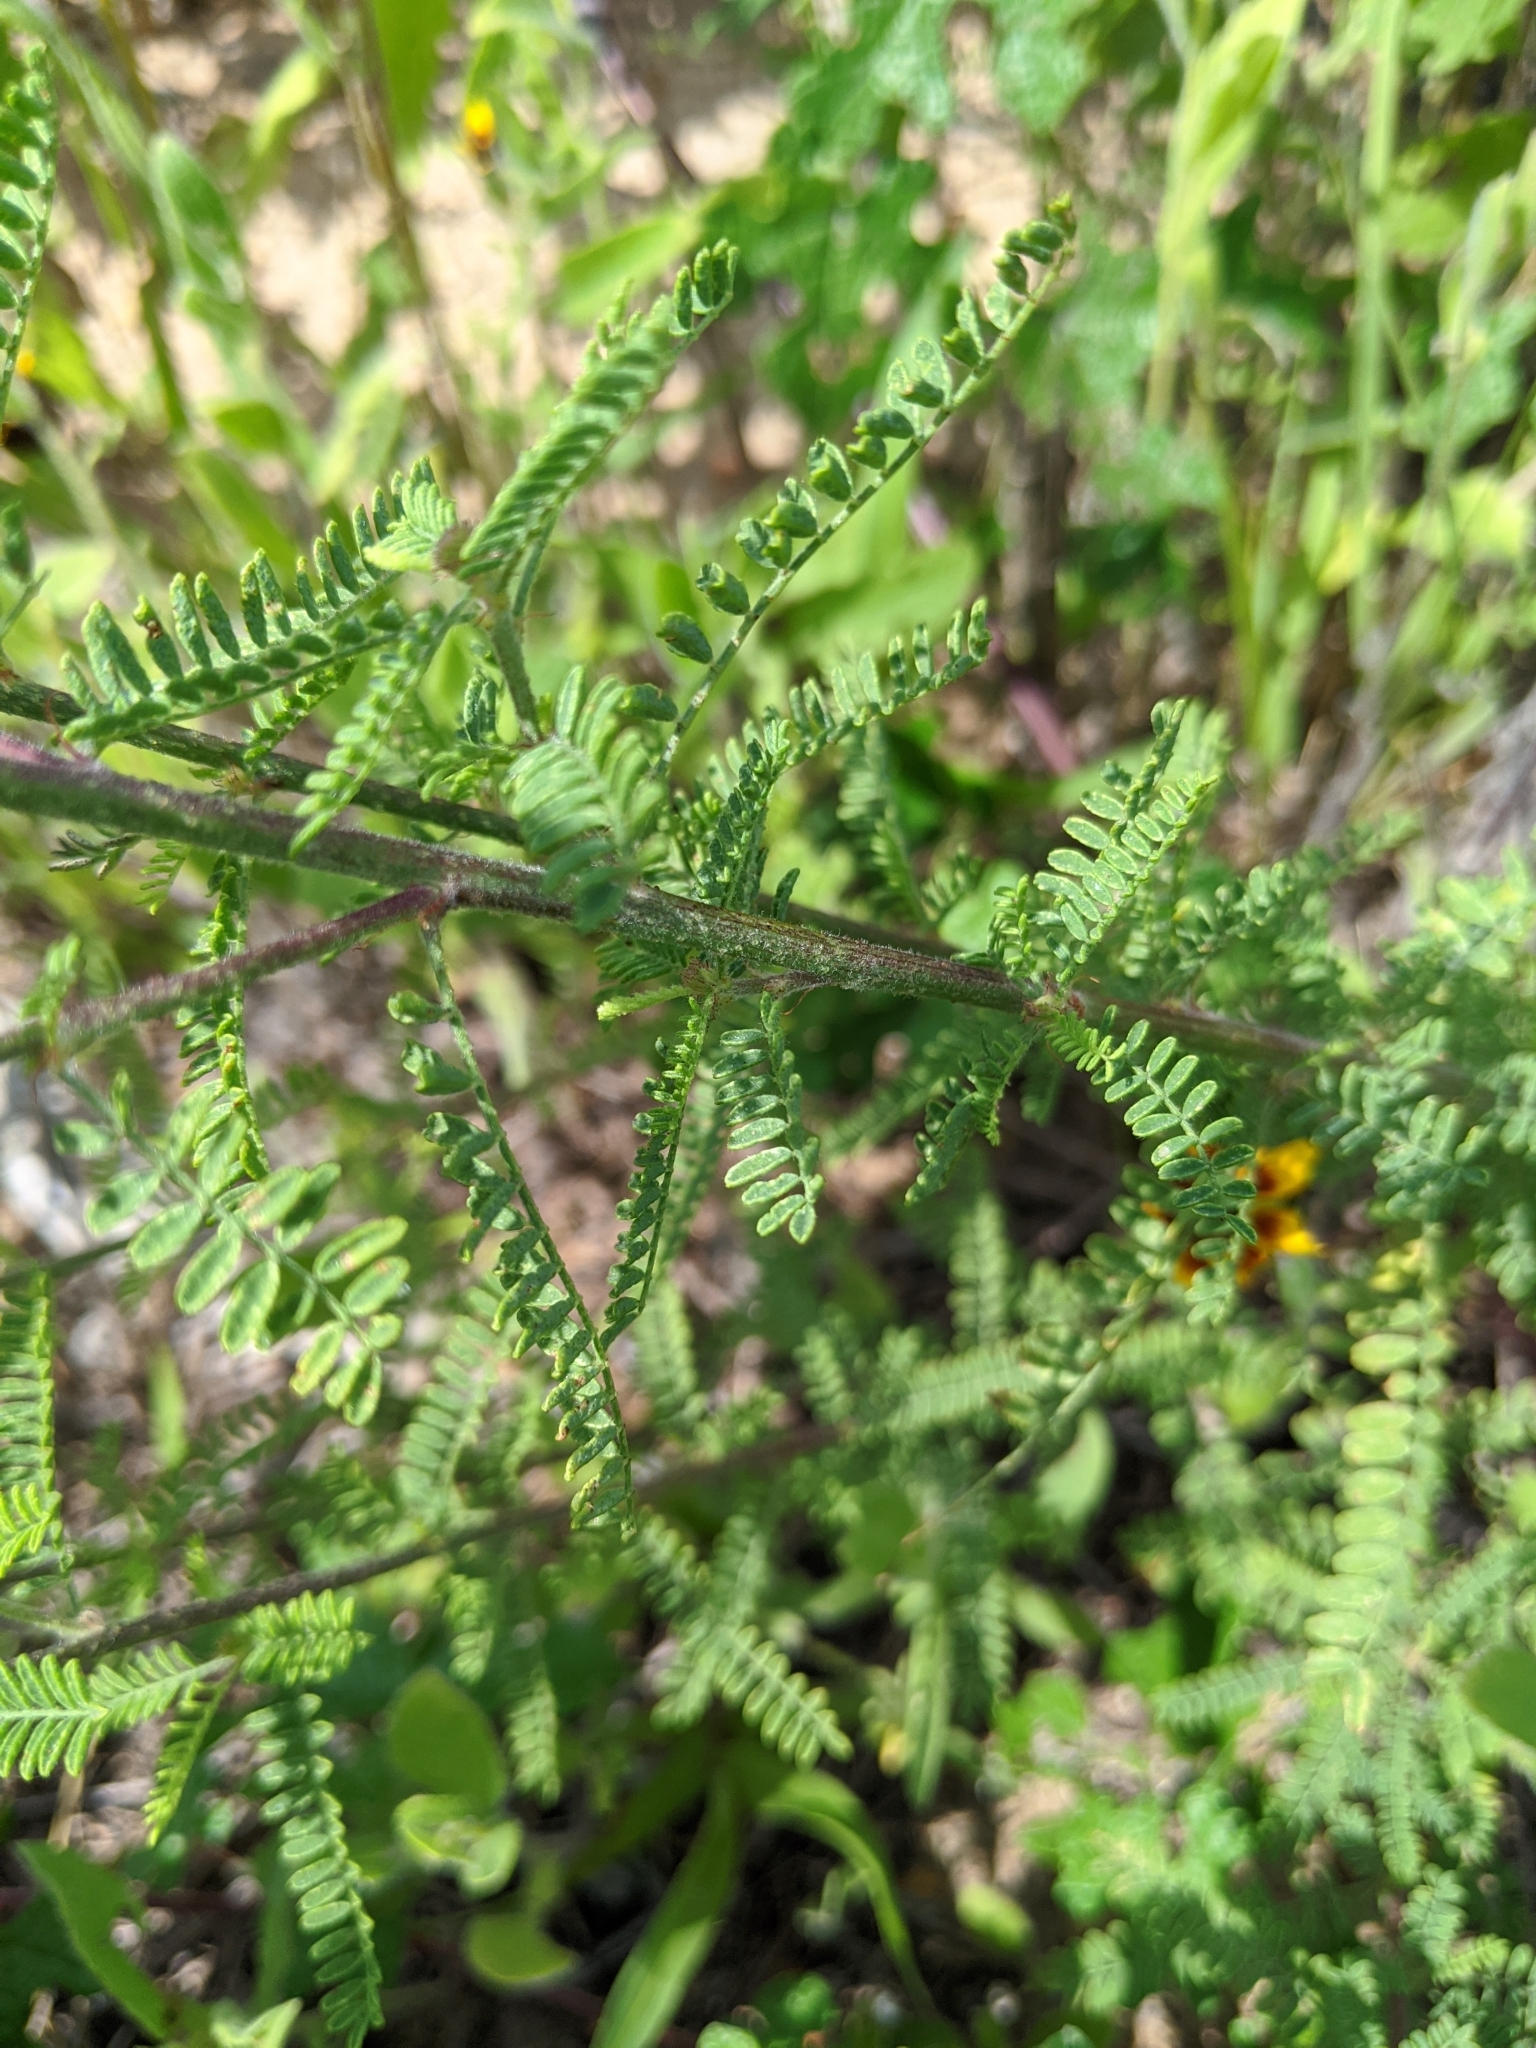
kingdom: Plantae
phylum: Tracheophyta
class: Magnoliopsida
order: Fabales
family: Fabaceae
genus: Dalea
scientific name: Dalea phleoides
